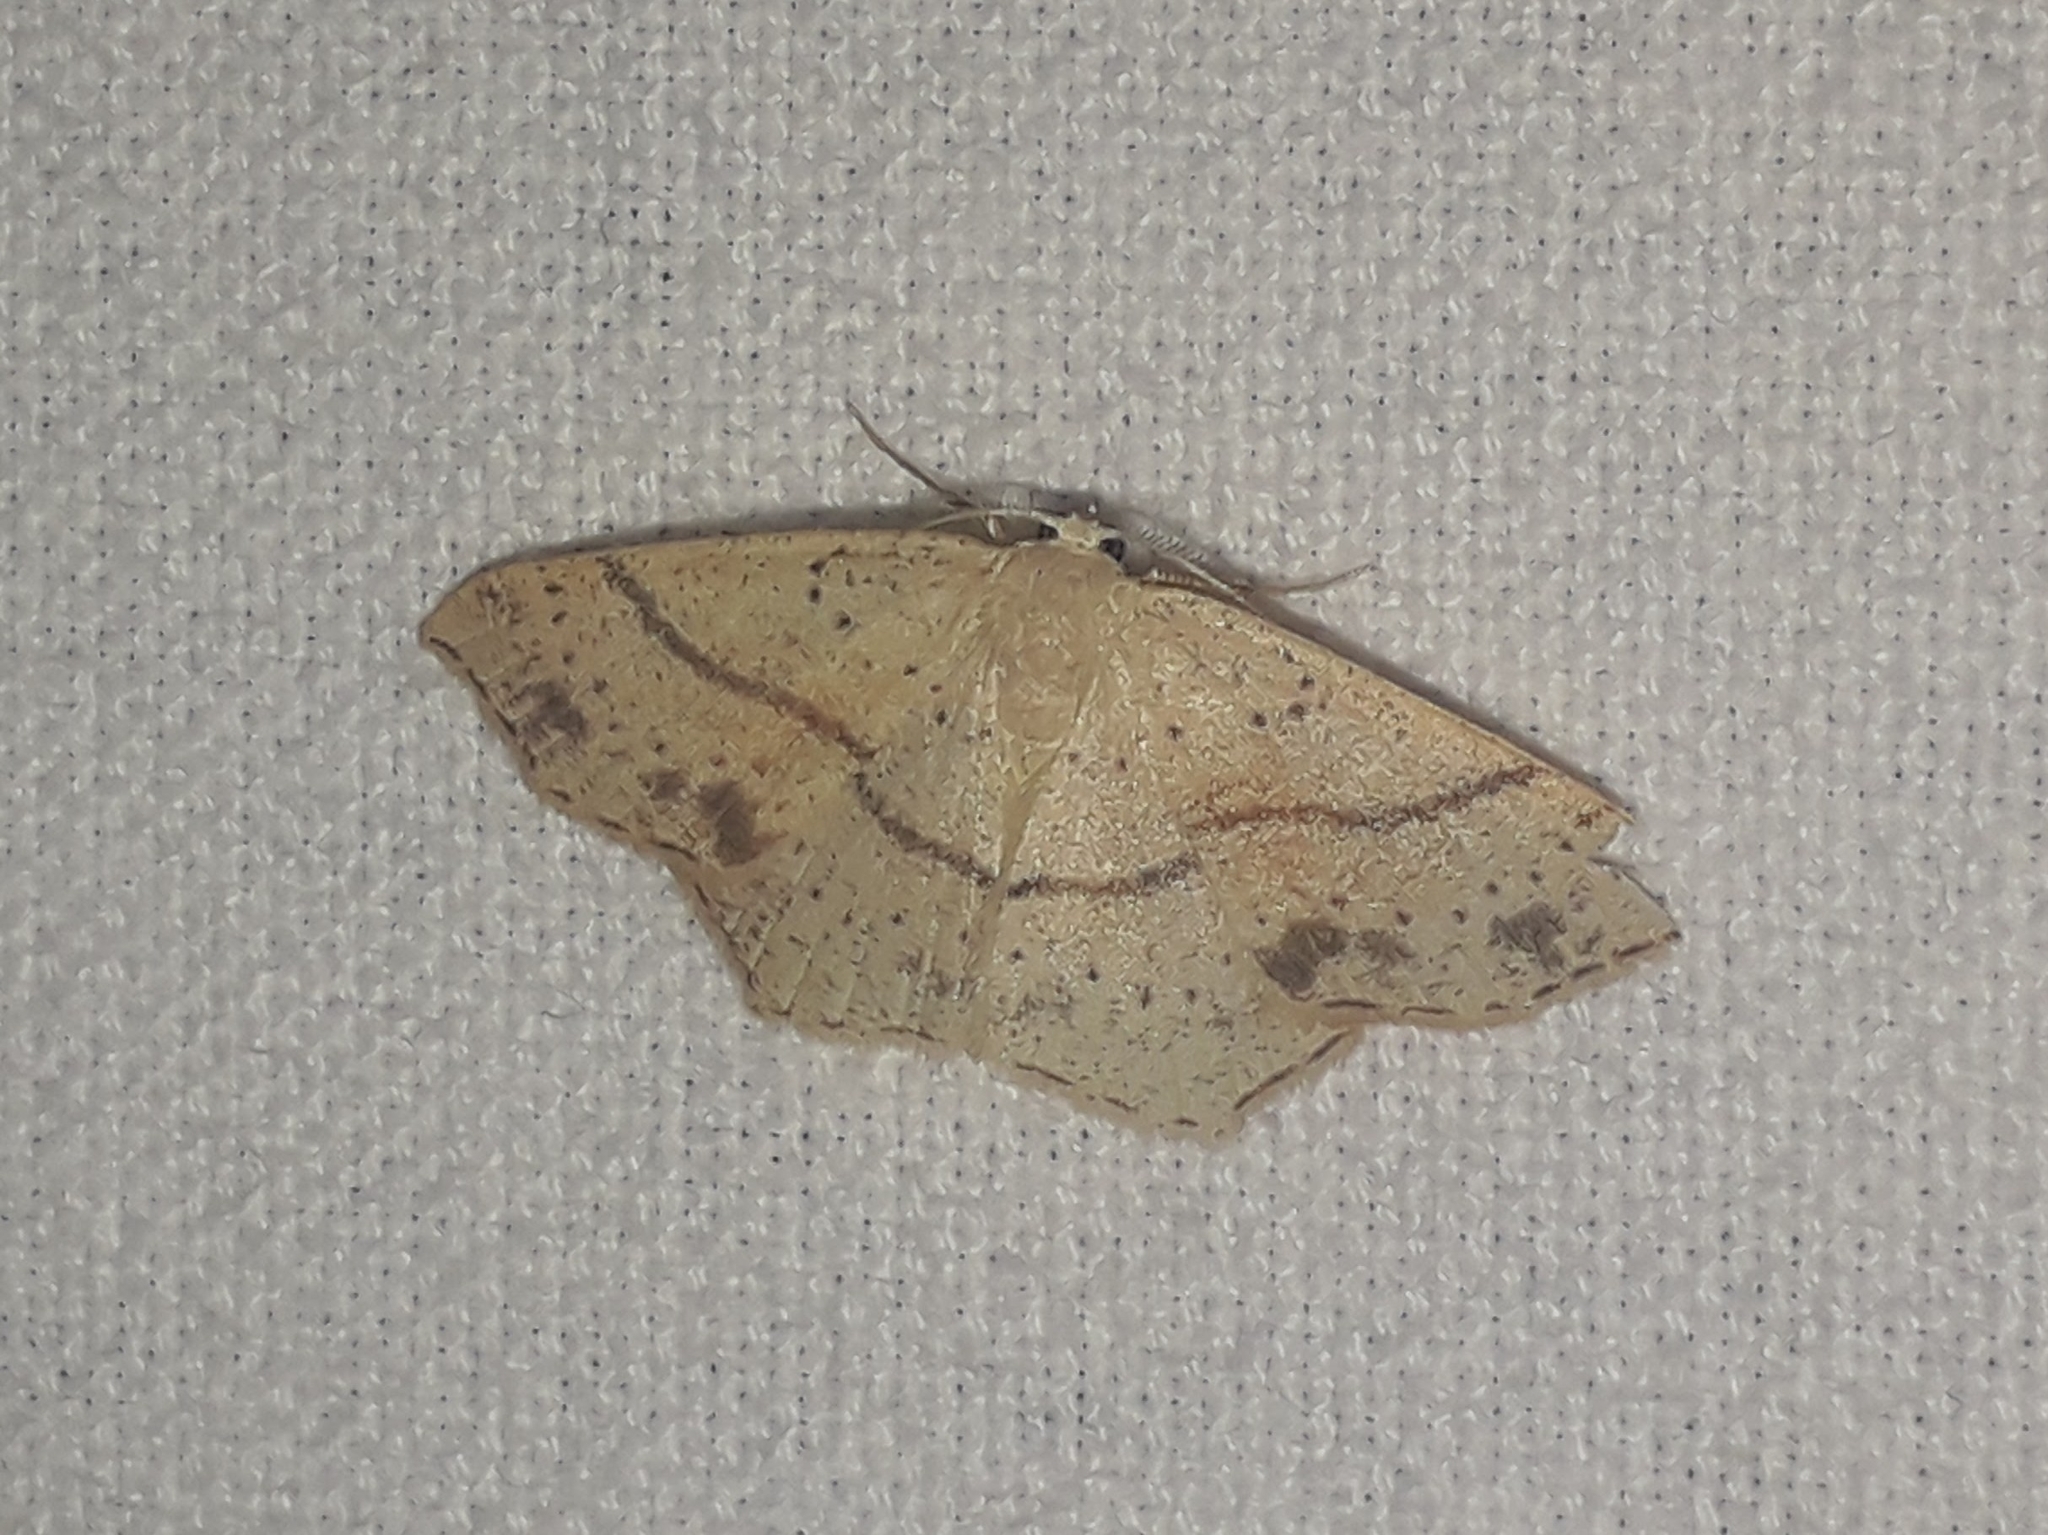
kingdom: Animalia
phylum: Arthropoda
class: Insecta
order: Lepidoptera
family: Geometridae
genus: Cyclophora
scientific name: Cyclophora punctaria
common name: Maiden's blush
